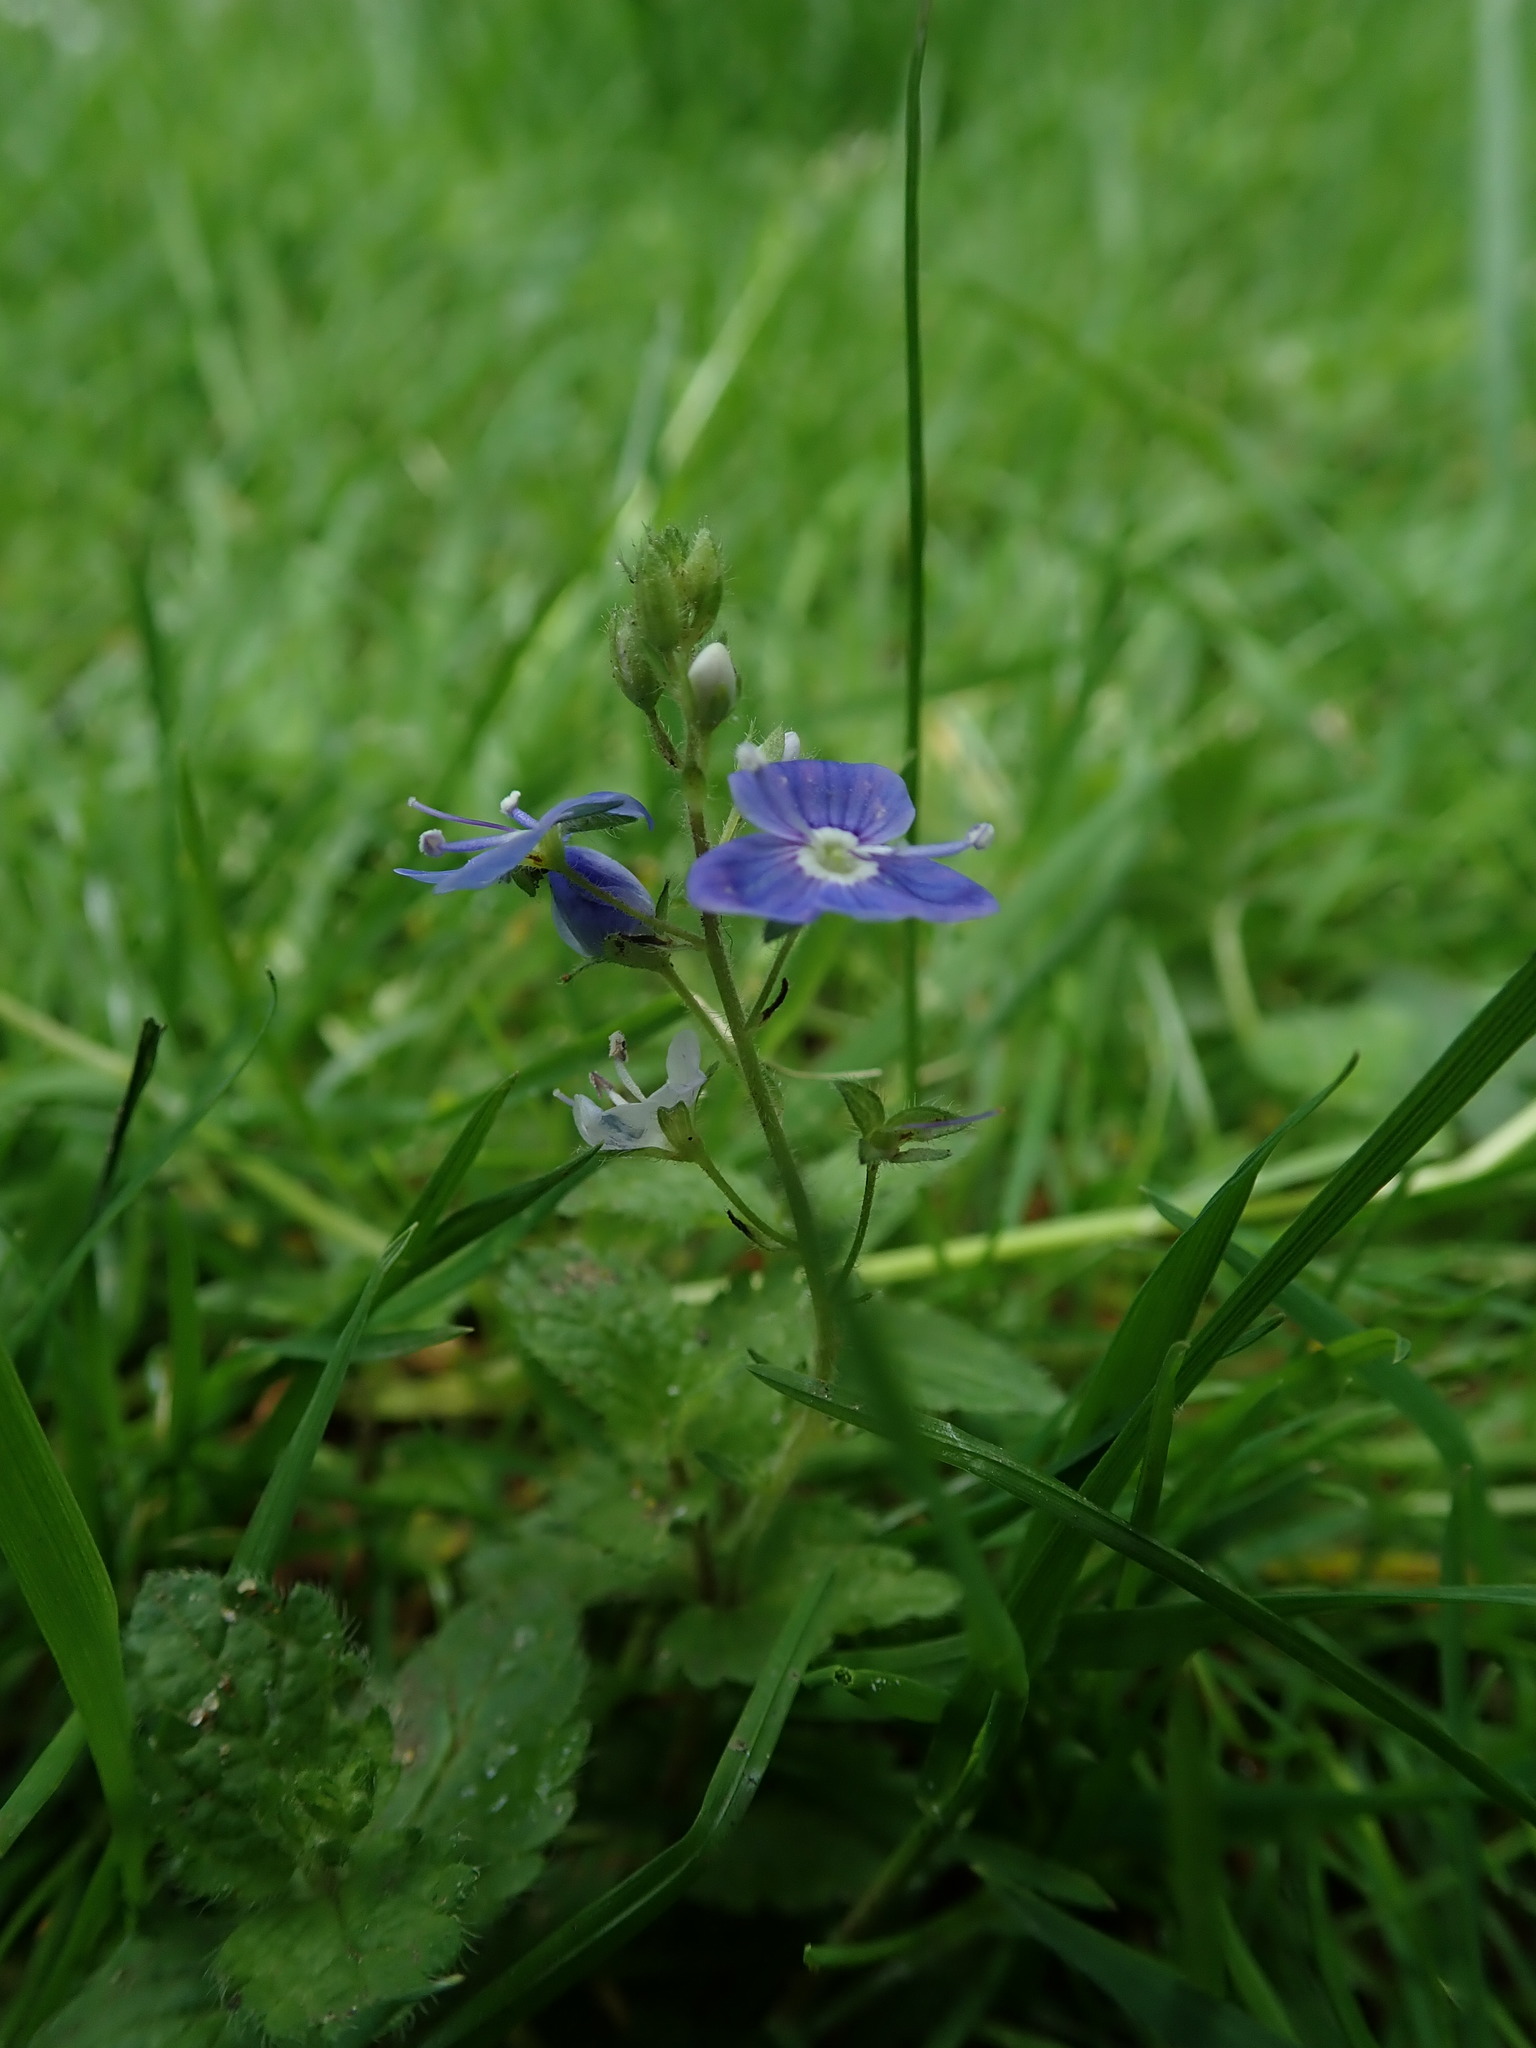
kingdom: Plantae
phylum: Tracheophyta
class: Magnoliopsida
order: Lamiales
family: Plantaginaceae
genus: Veronica
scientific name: Veronica chamaedrys
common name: Germander speedwell
